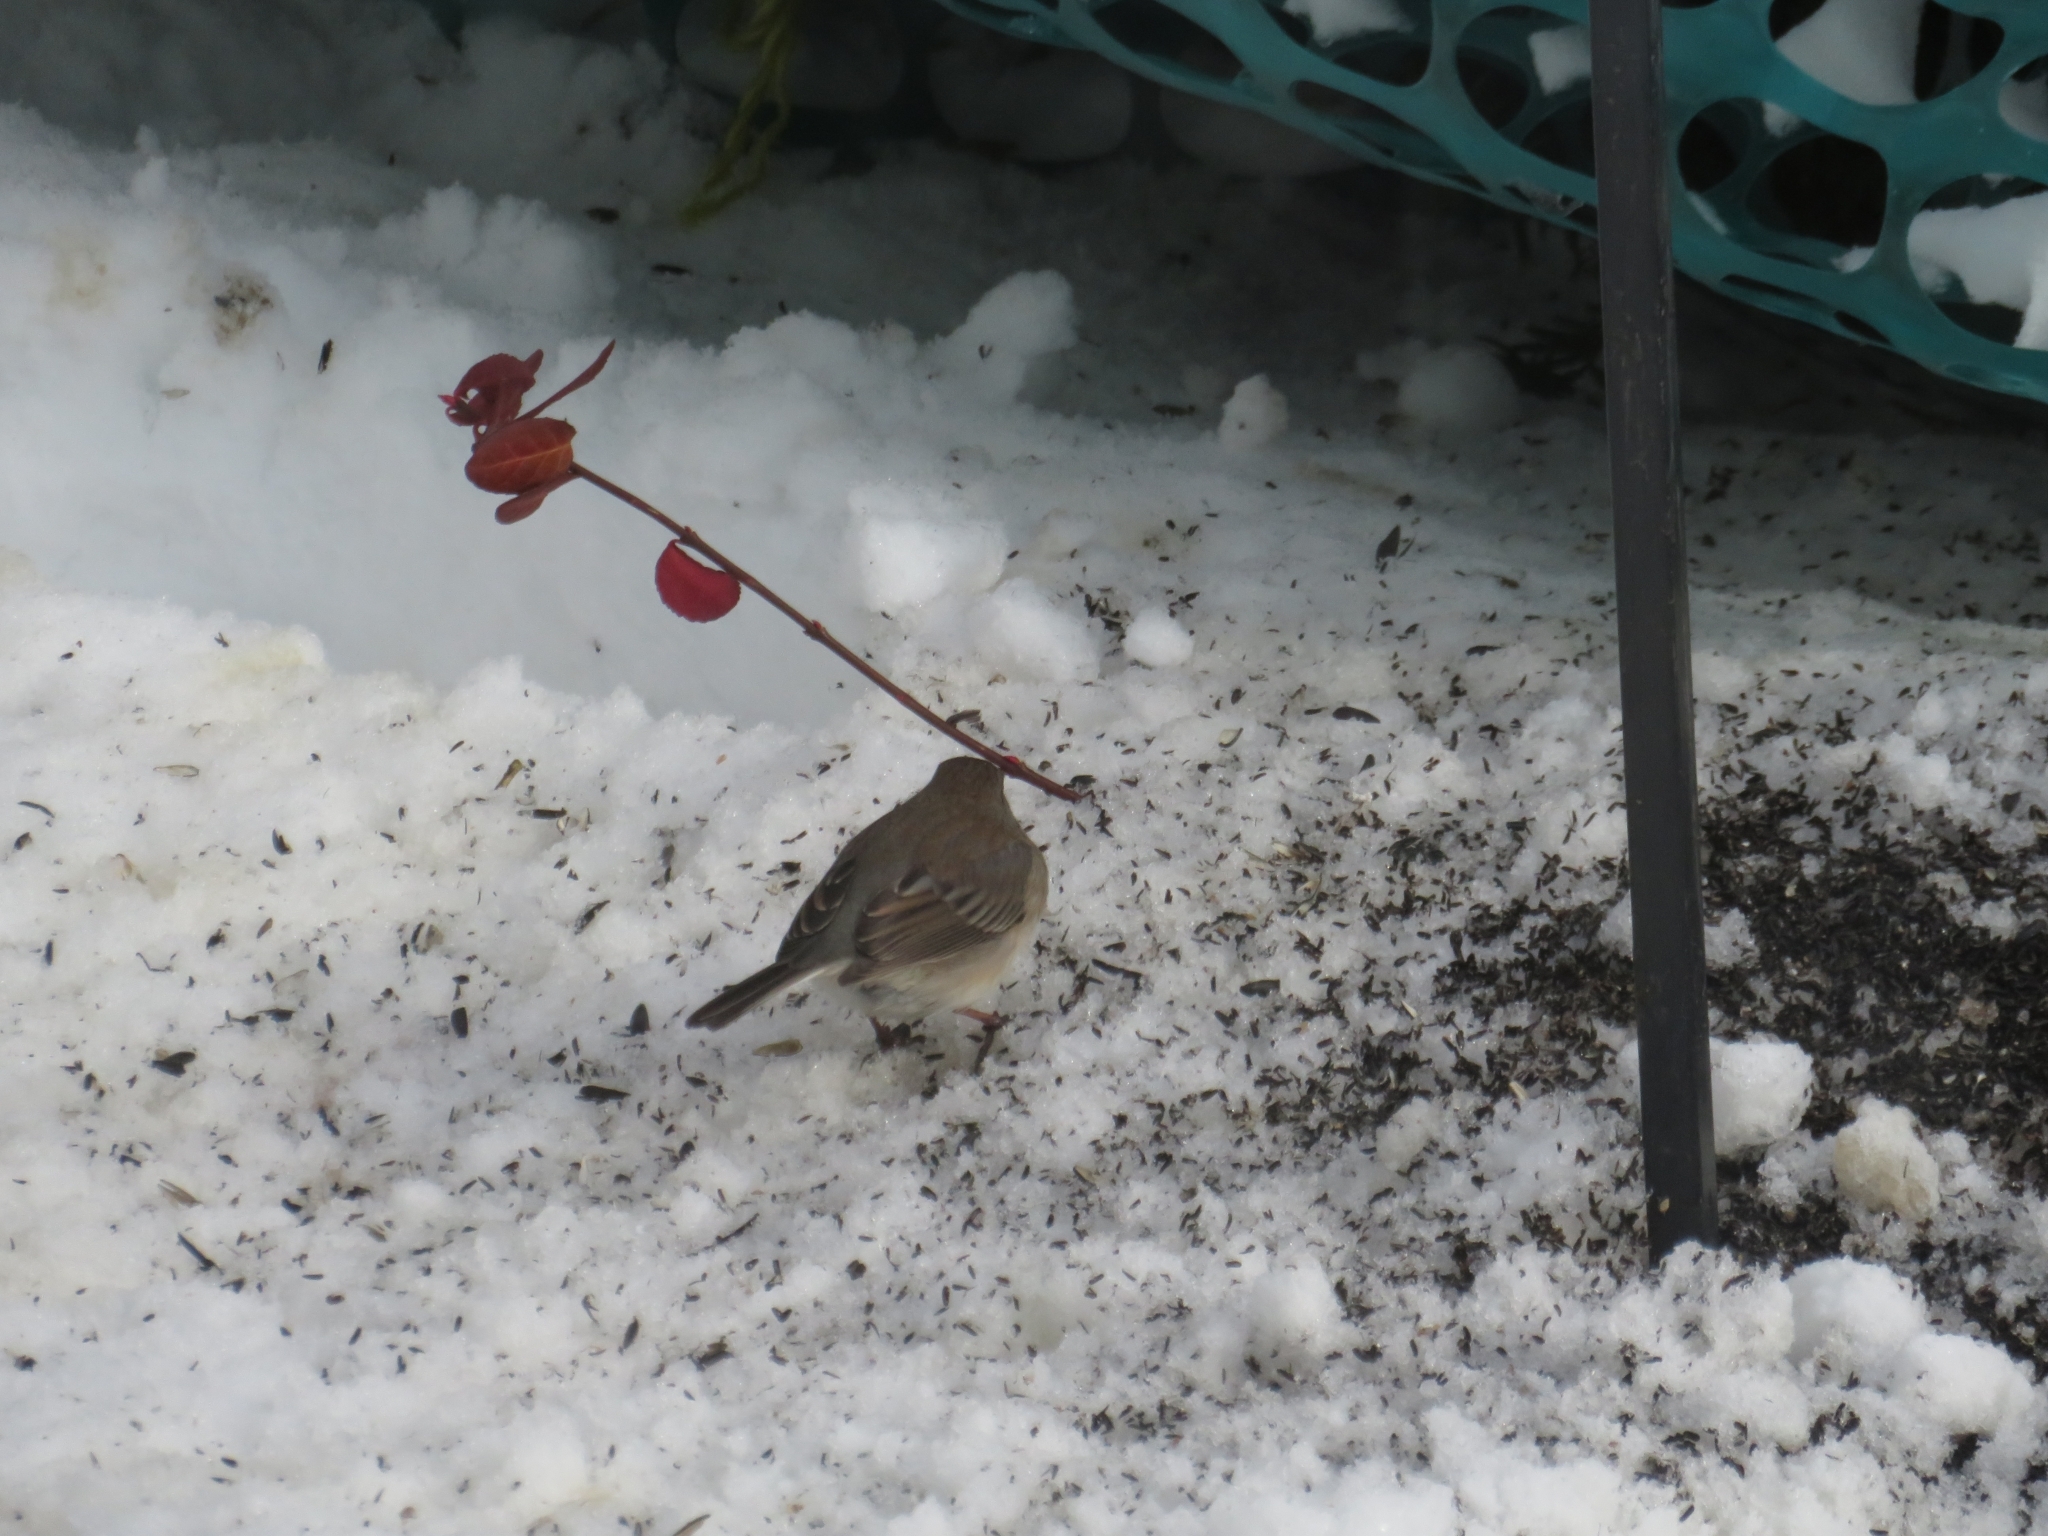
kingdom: Animalia
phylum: Chordata
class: Aves
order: Passeriformes
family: Passerellidae
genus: Junco
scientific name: Junco hyemalis
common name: Dark-eyed junco
